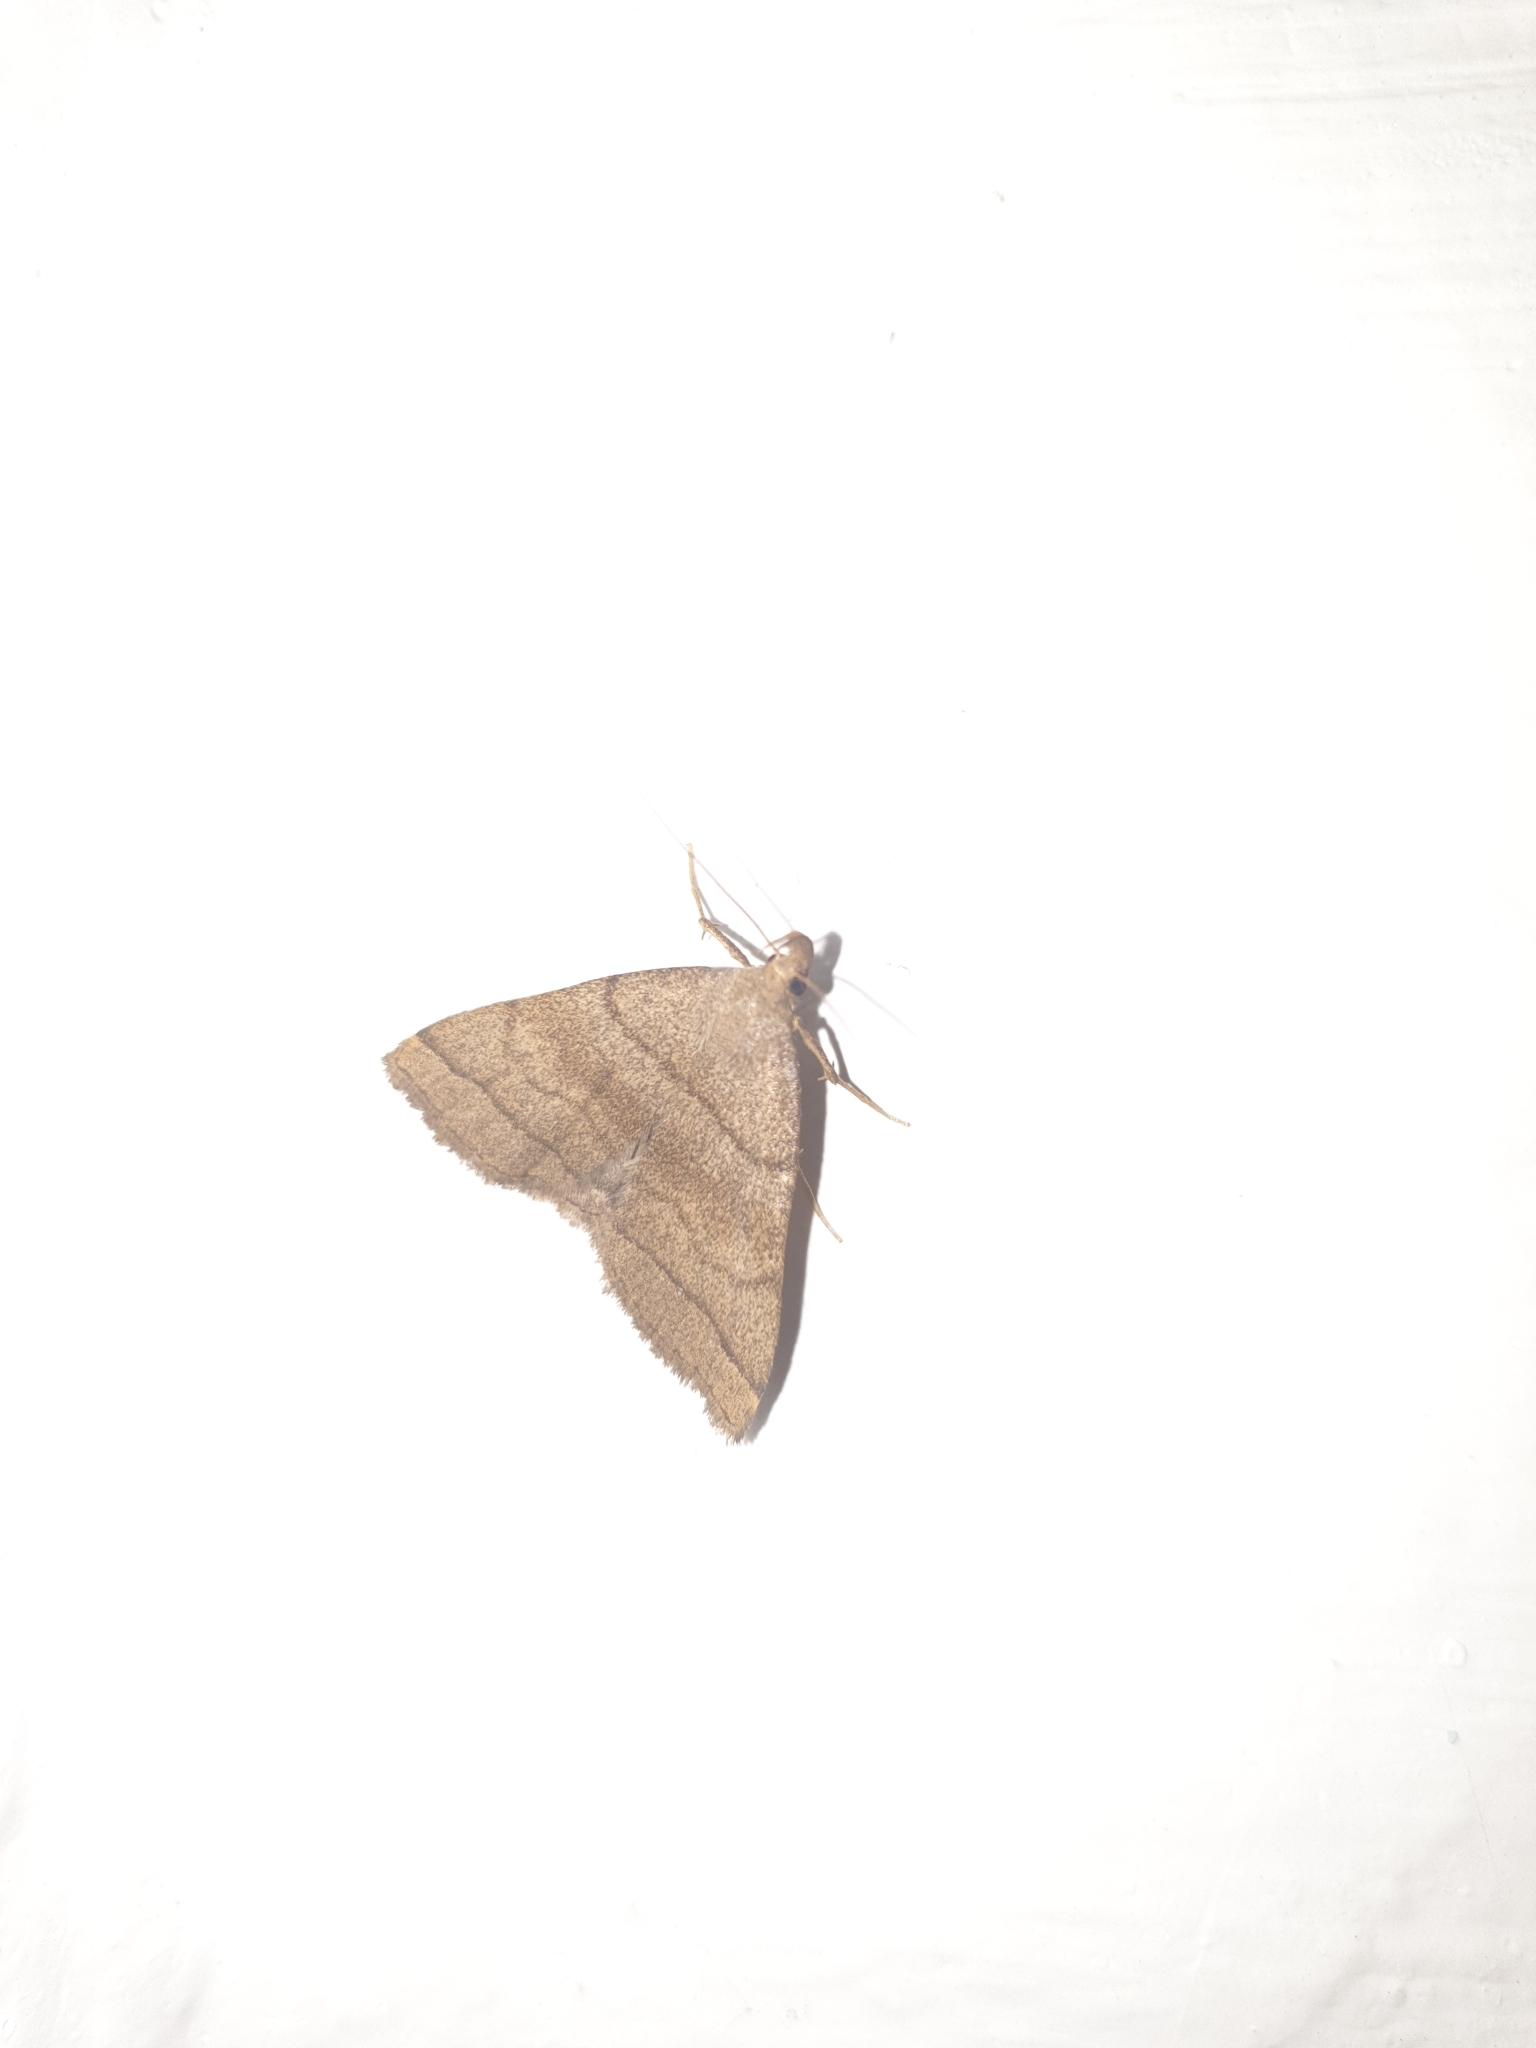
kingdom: Animalia
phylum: Arthropoda
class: Insecta
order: Lepidoptera
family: Erebidae
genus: Herminia
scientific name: Herminia tarsipennalis
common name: Fan-foot
